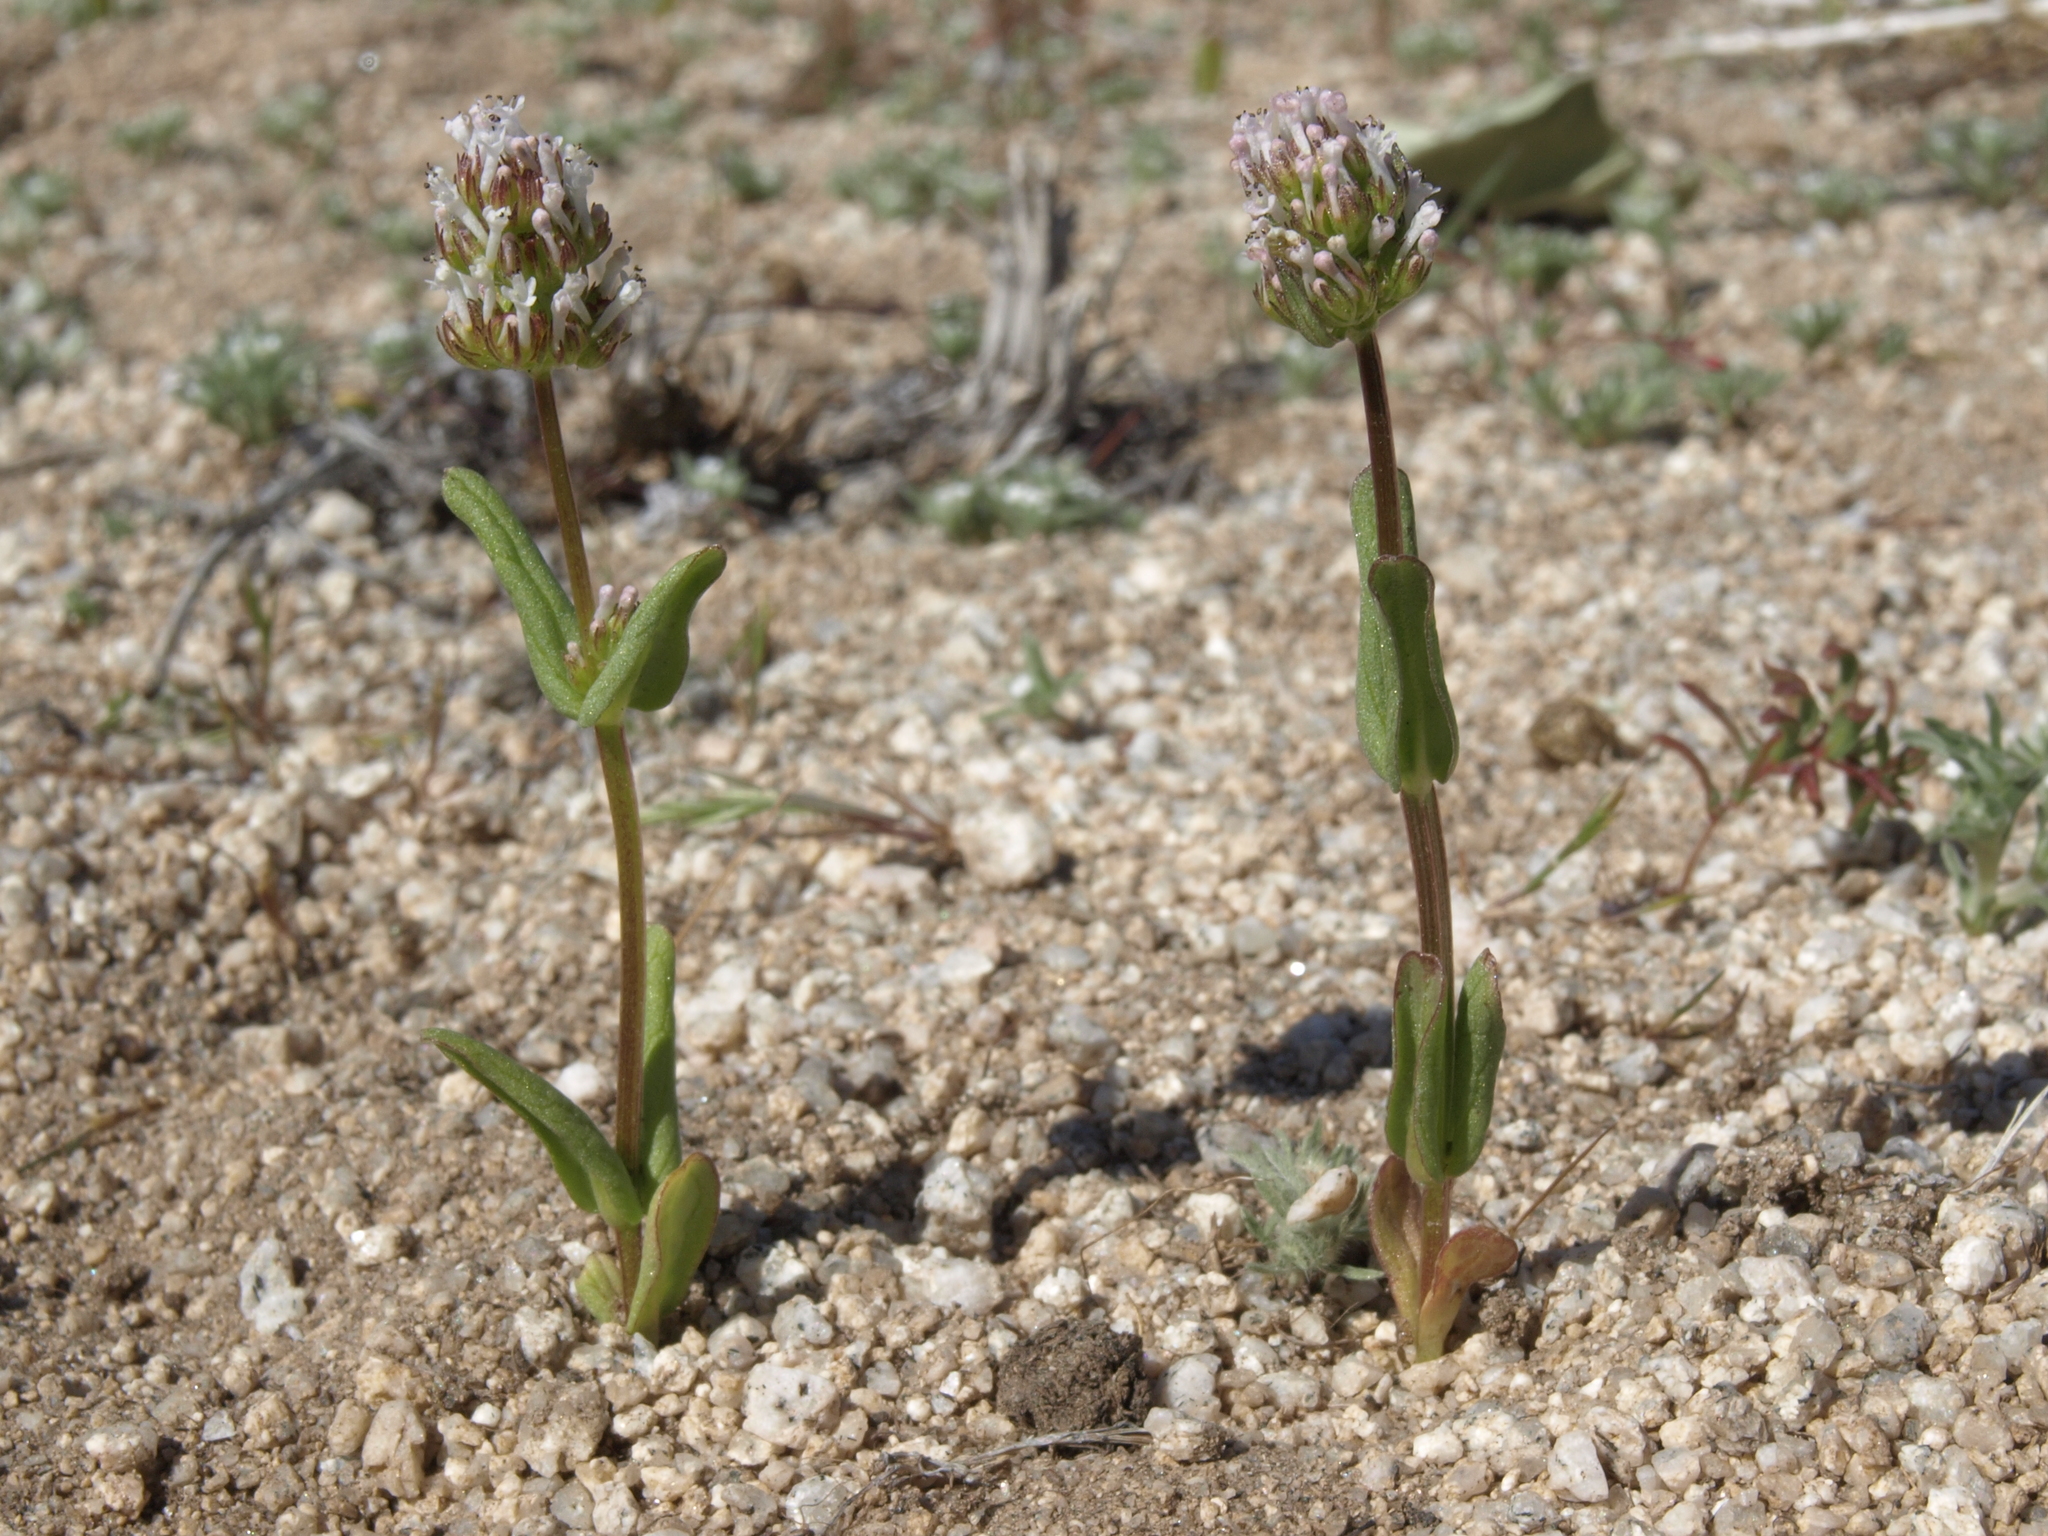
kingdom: Plantae
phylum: Tracheophyta
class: Magnoliopsida
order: Dipsacales
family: Caprifoliaceae
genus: Plectritis
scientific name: Plectritis macroptera
